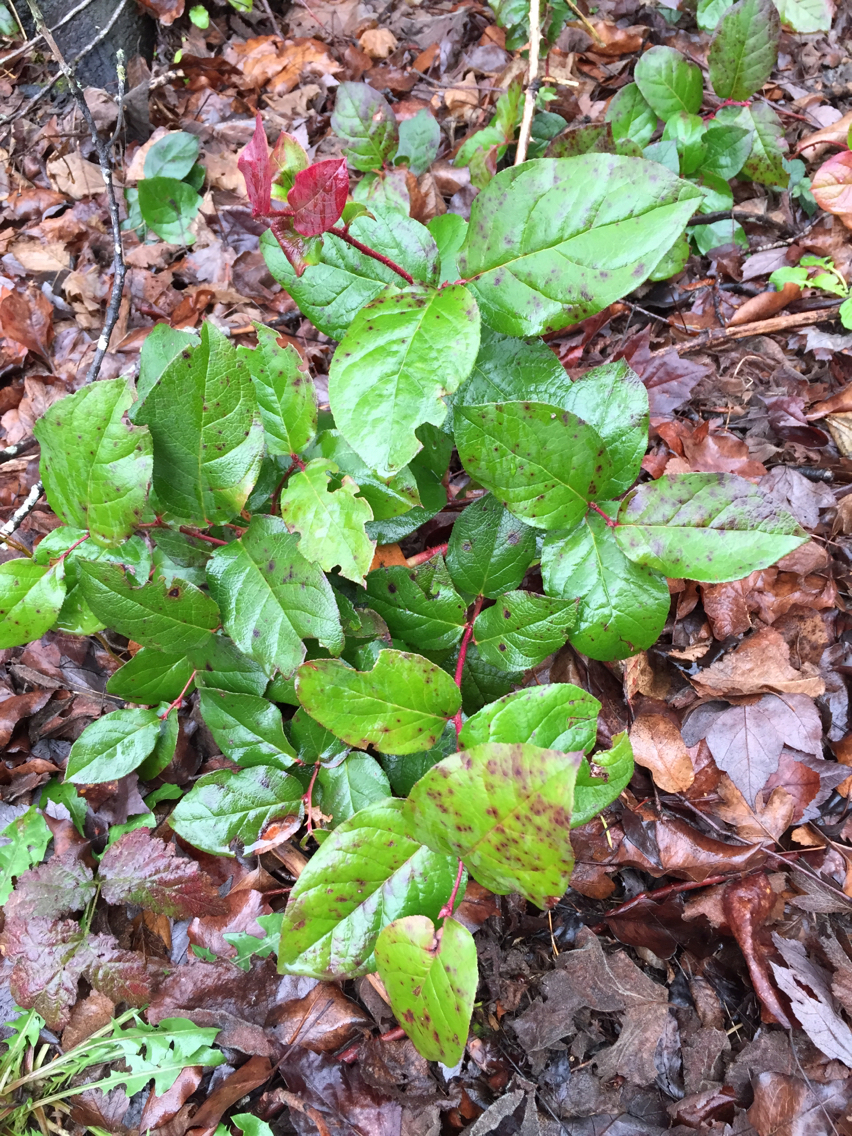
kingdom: Plantae
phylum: Tracheophyta
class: Magnoliopsida
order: Ericales
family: Ericaceae
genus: Gaultheria
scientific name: Gaultheria shallon
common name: Shallon
